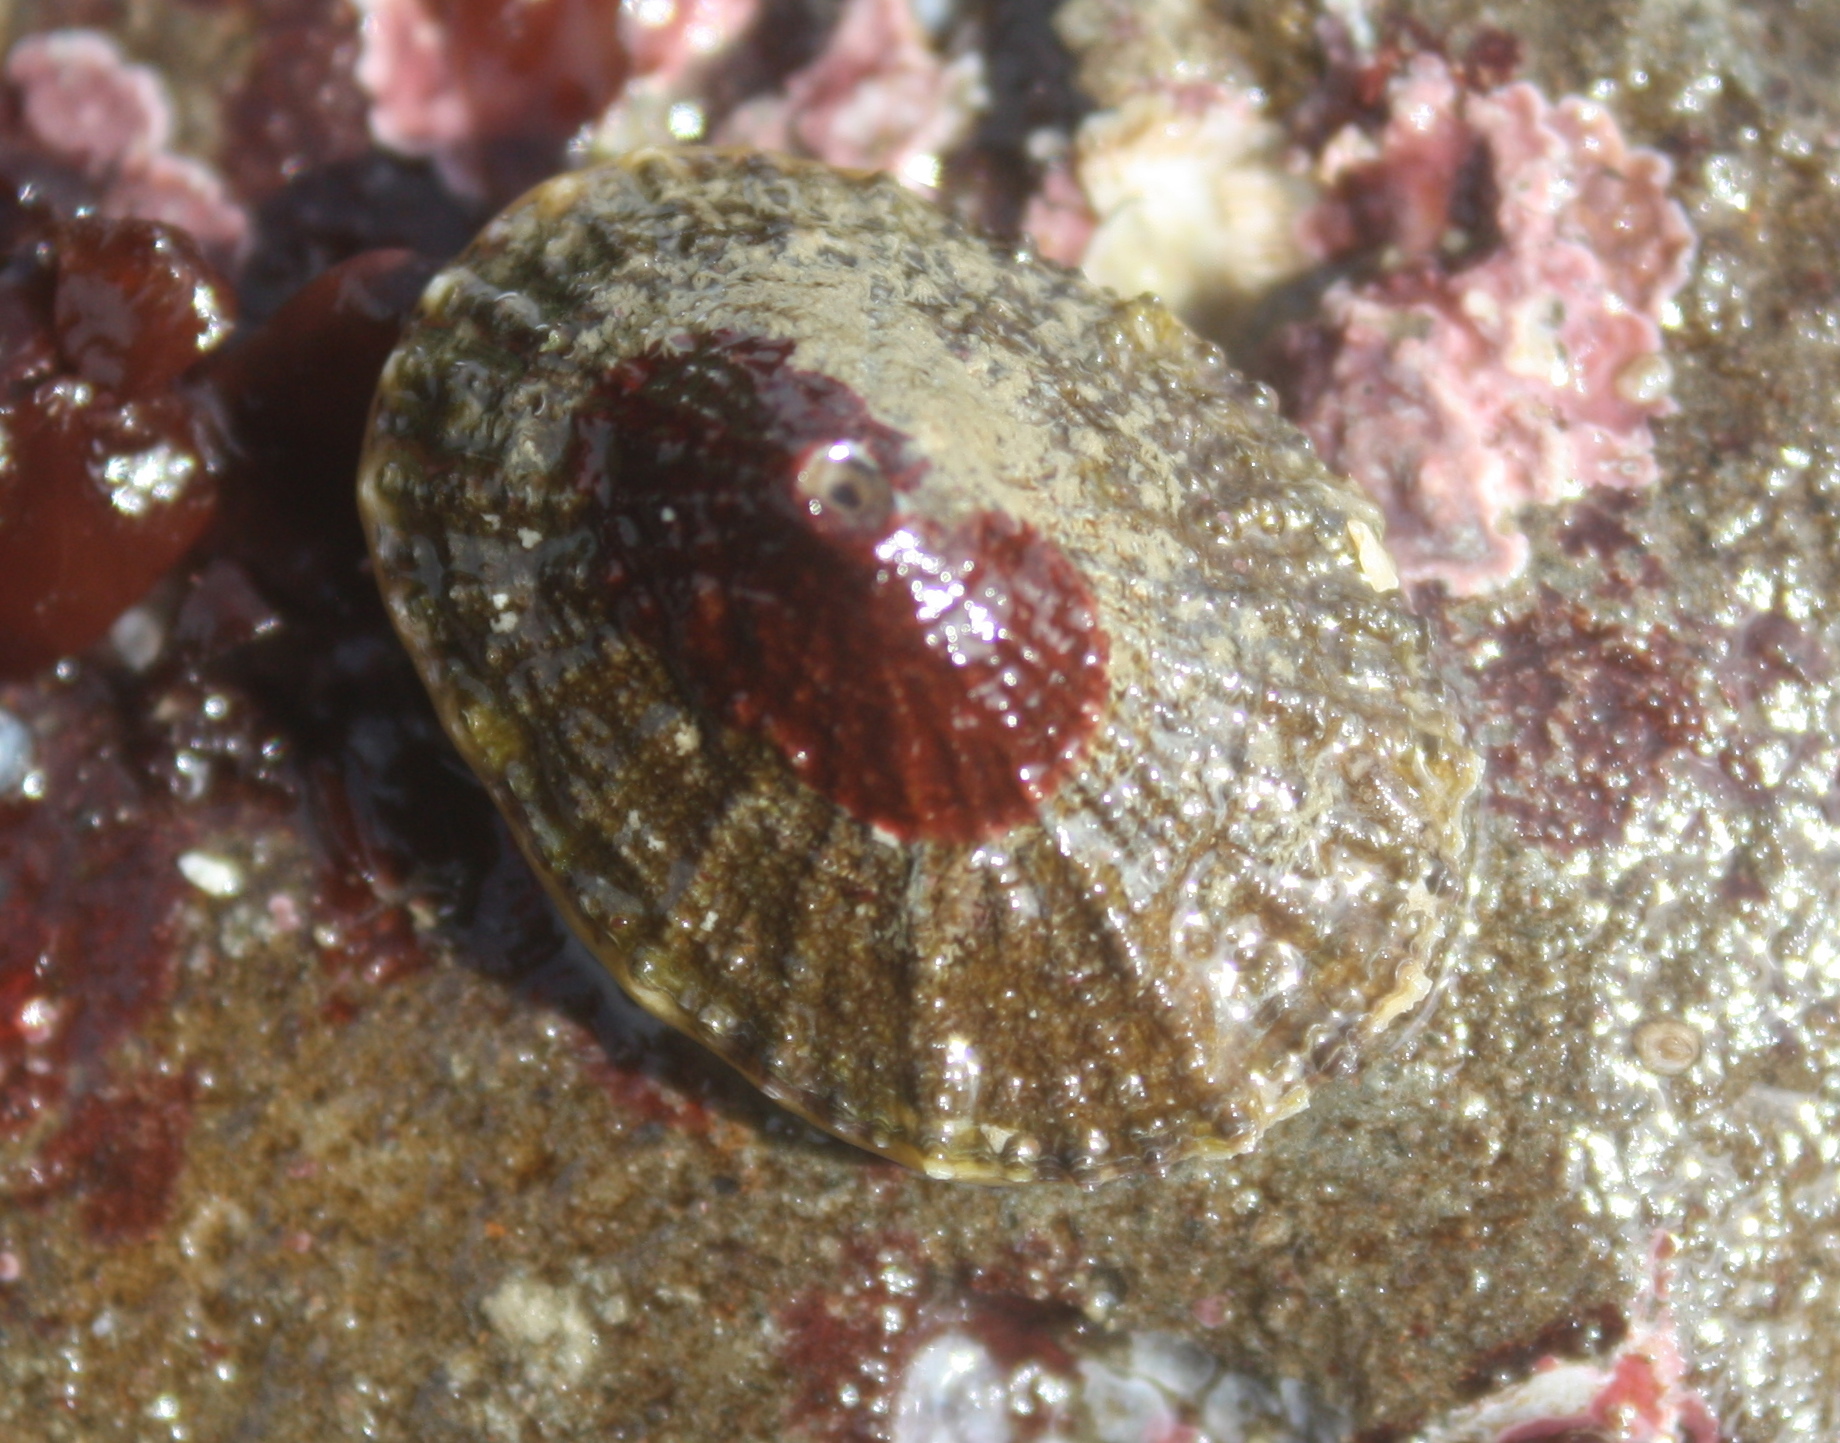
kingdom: Animalia
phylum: Mollusca
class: Gastropoda
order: Lepetellida
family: Fissurellidae
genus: Diodora
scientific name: Diodora aspera
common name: Rough keyhole limpet
